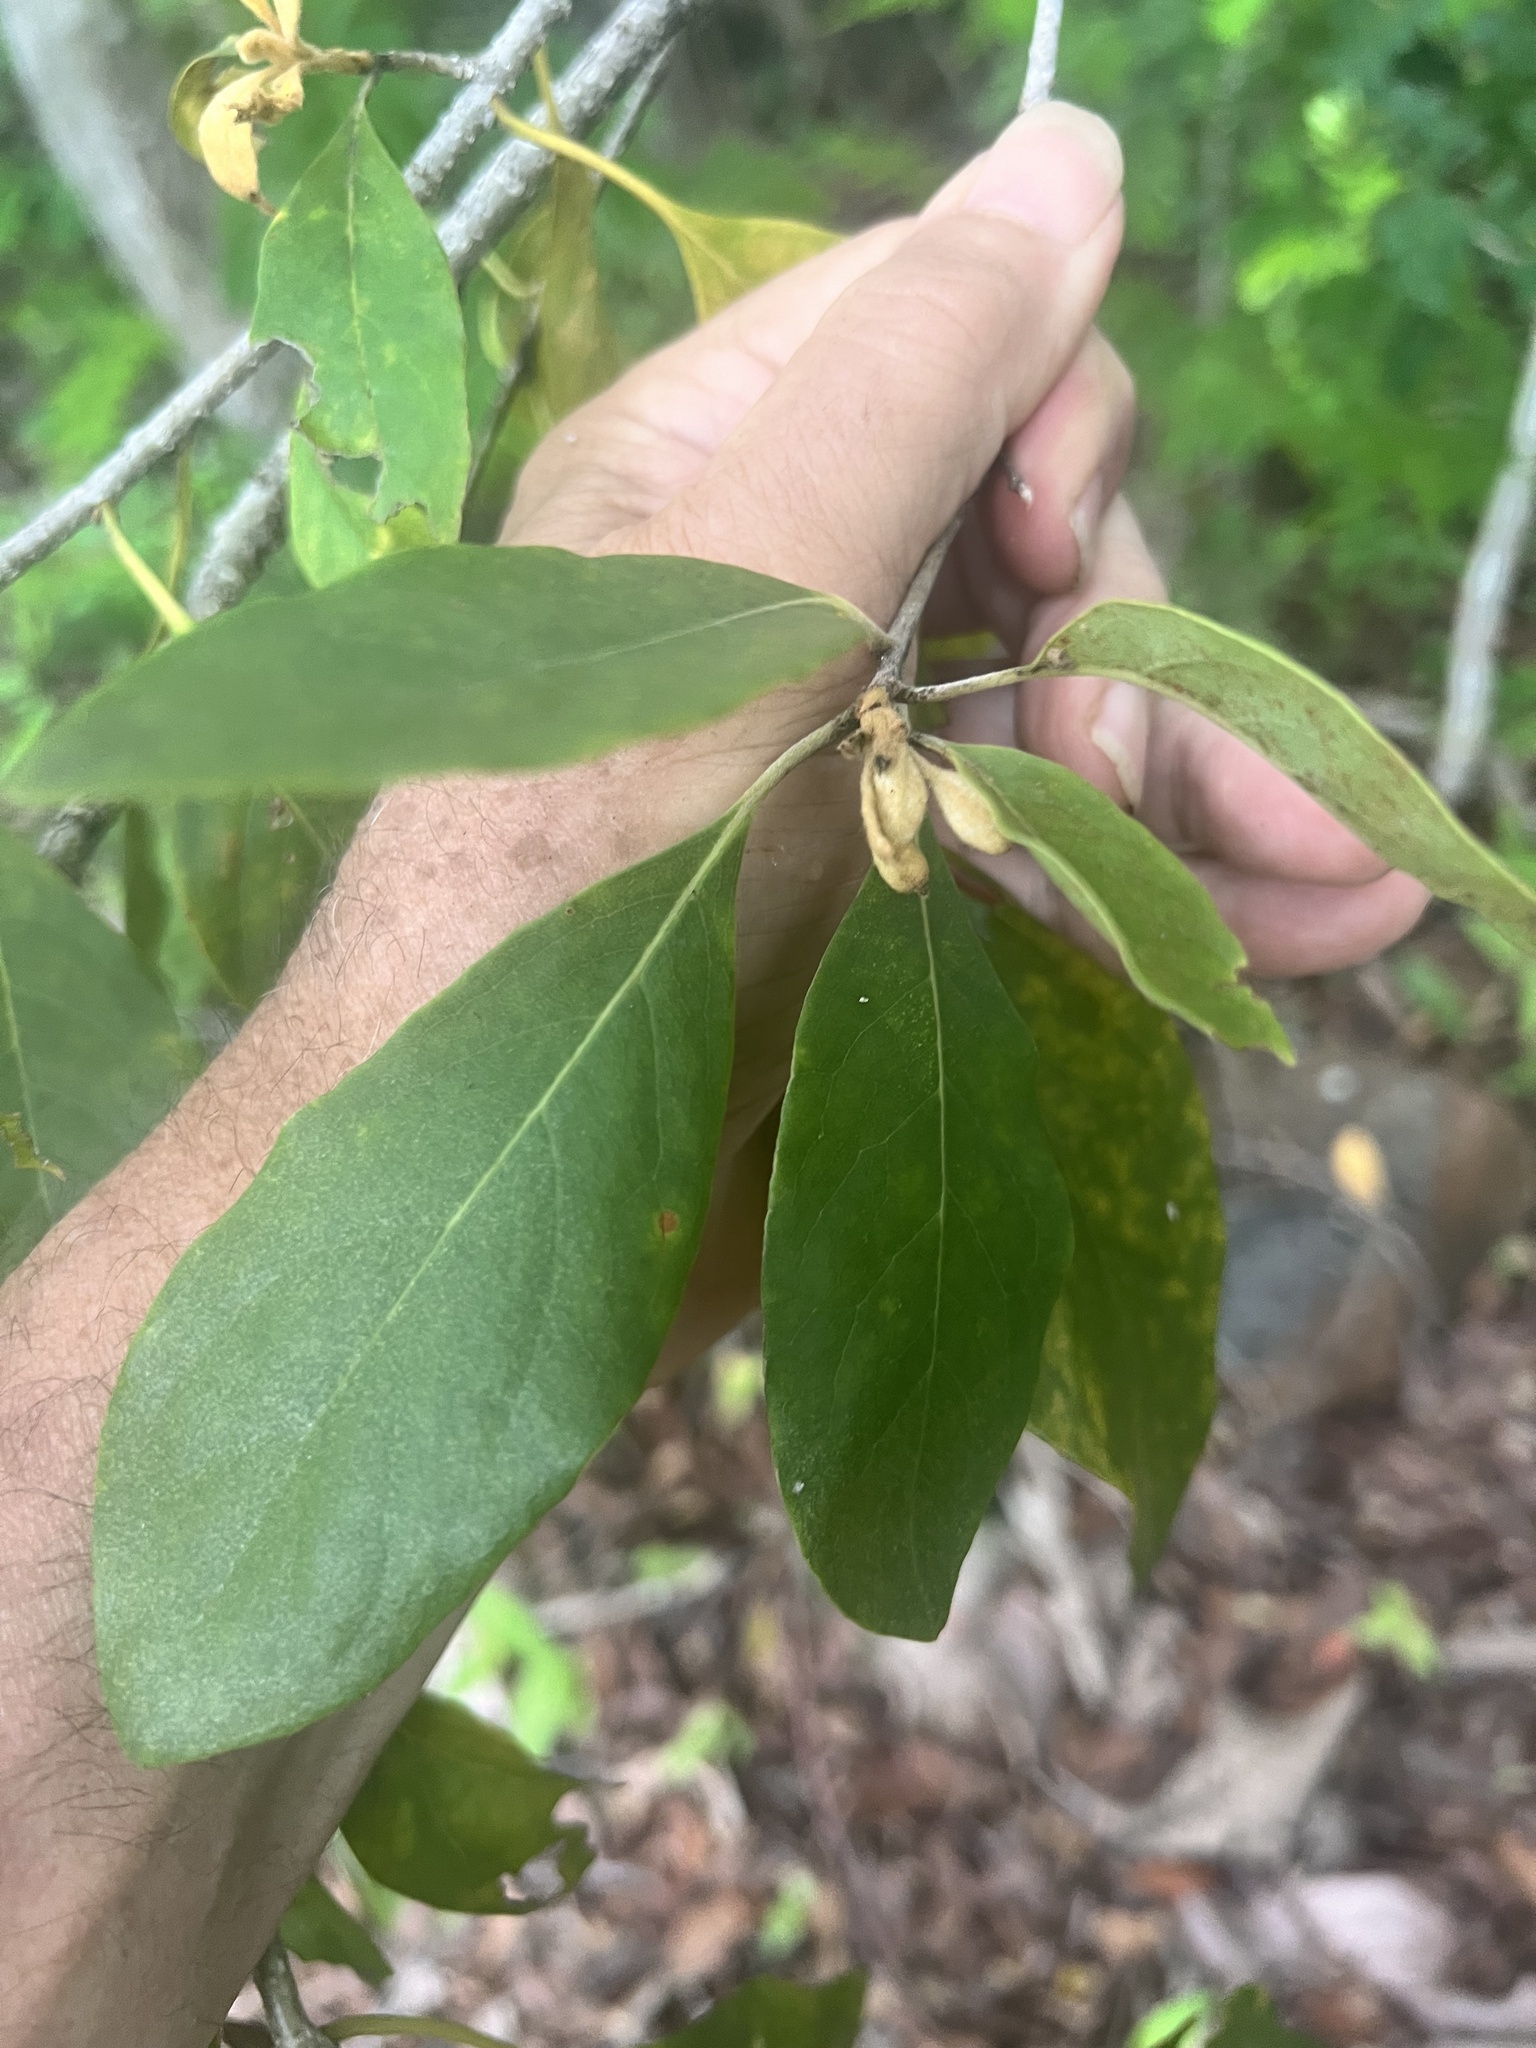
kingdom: Plantae
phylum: Tracheophyta
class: Magnoliopsida
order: Apiales
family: Pittosporaceae
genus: Pittosporum
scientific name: Pittosporum tinifolium
